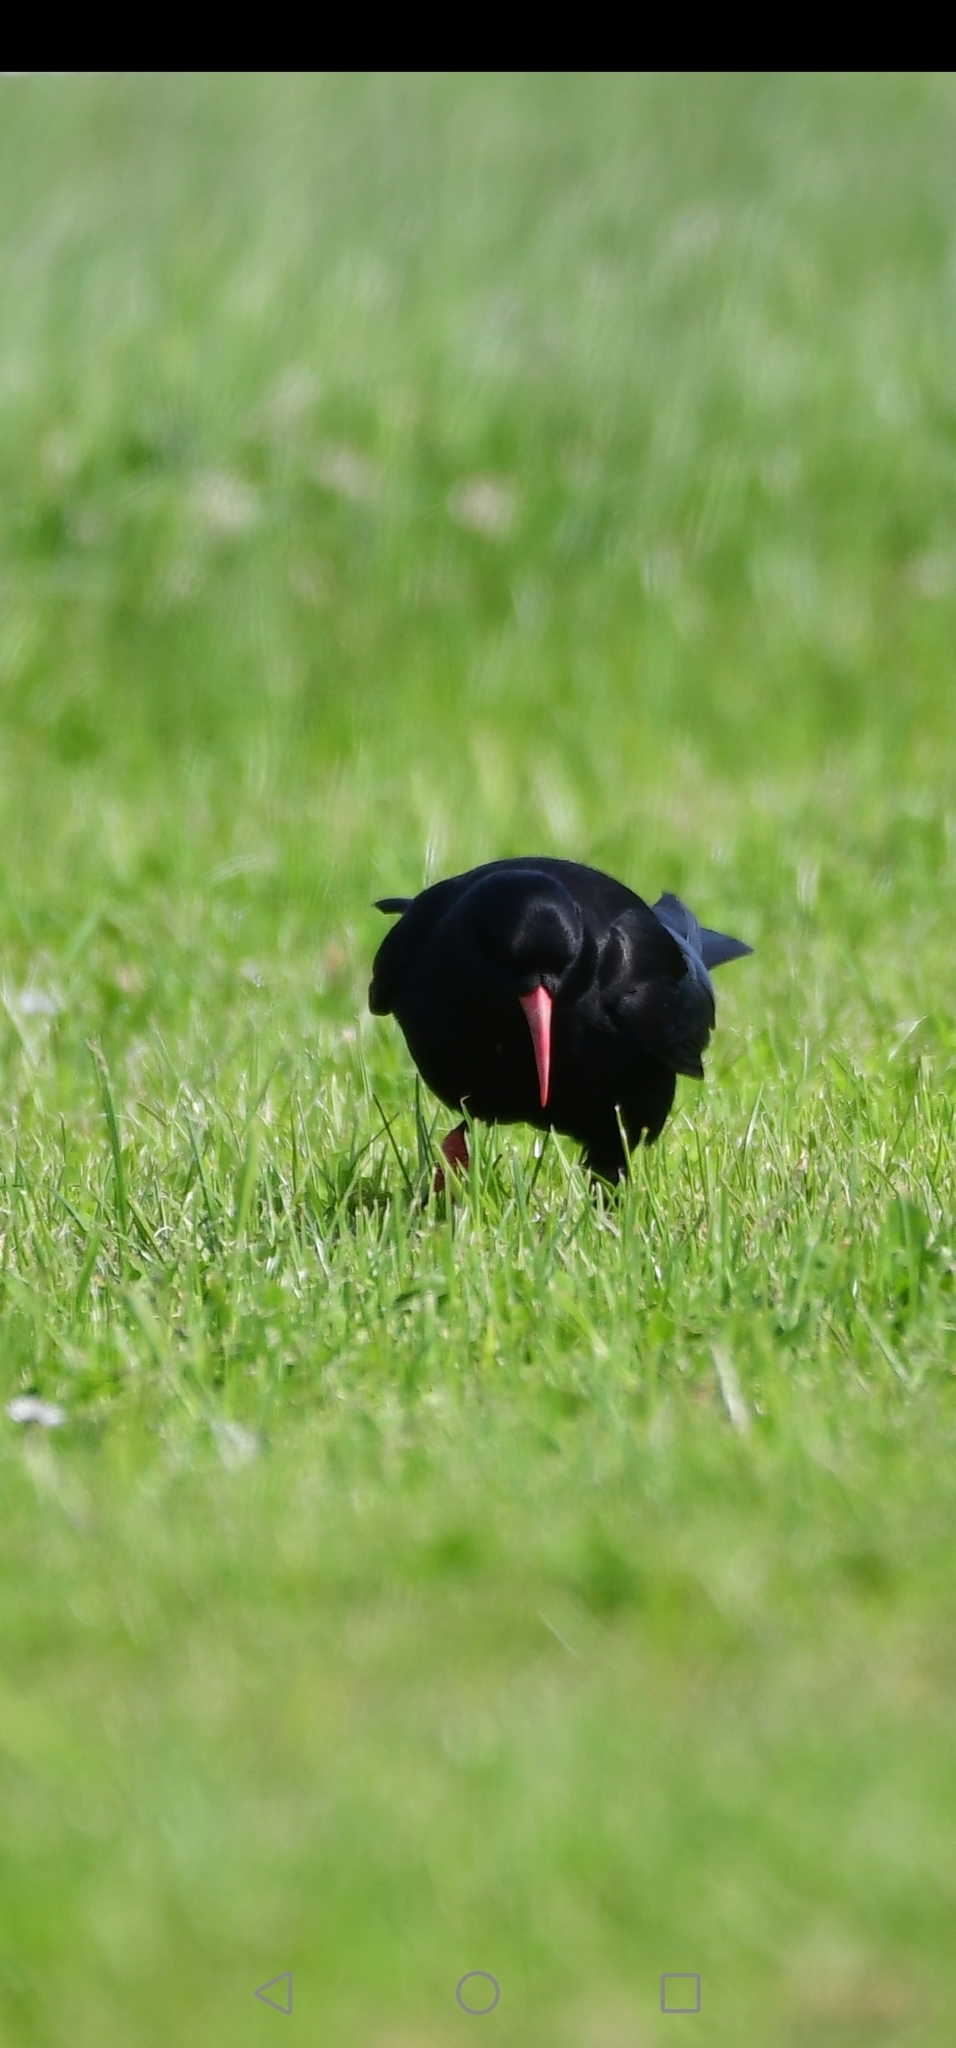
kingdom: Animalia
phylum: Chordata
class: Aves
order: Passeriformes
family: Corvidae
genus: Pyrrhocorax
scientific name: Pyrrhocorax pyrrhocorax
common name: Red-billed chough
